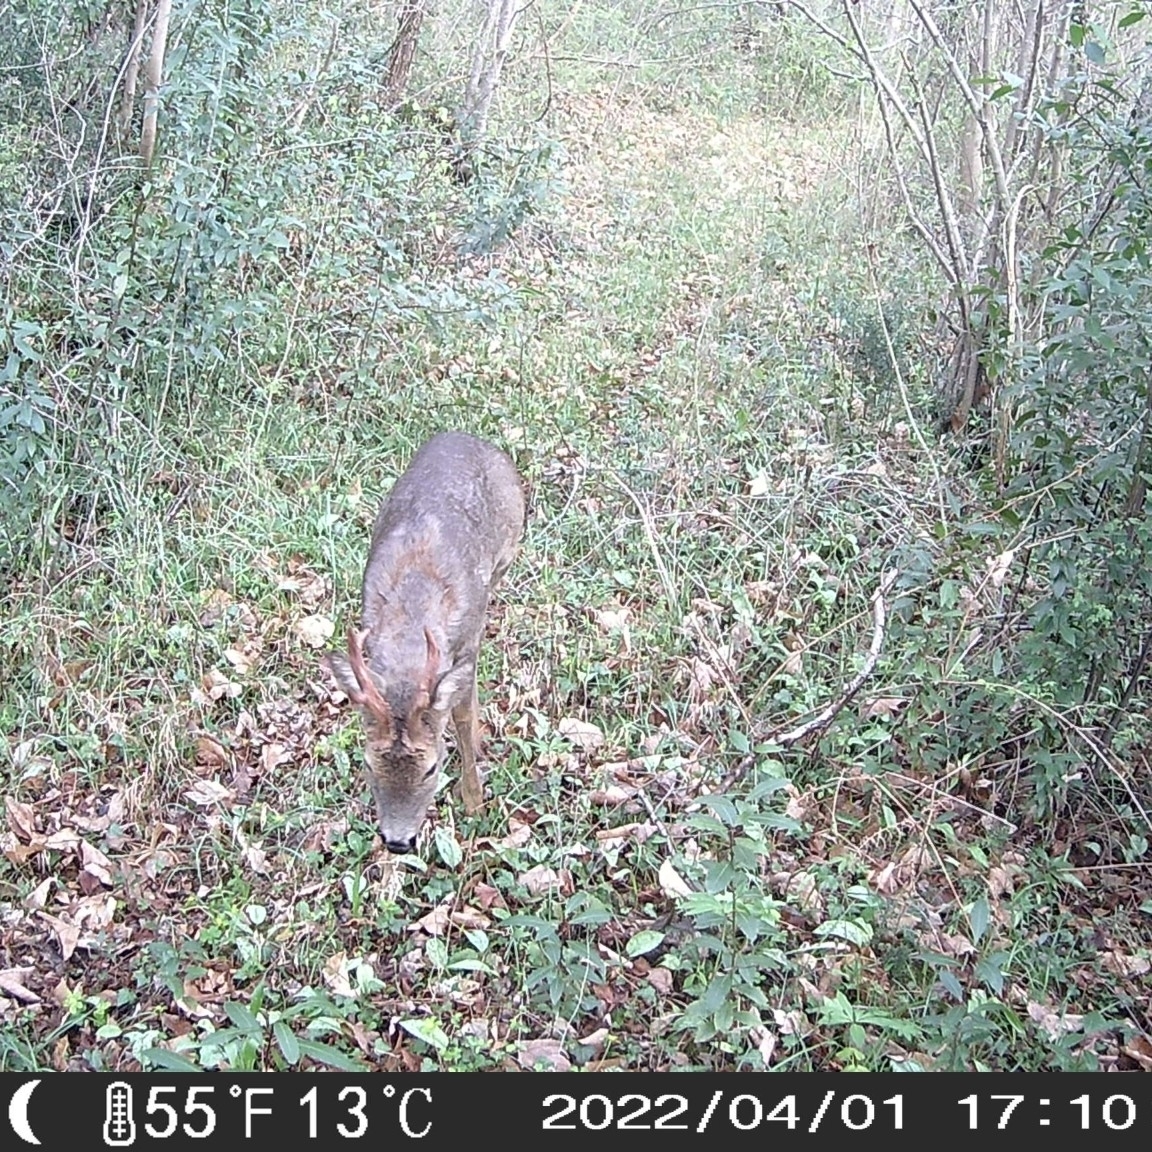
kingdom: Animalia
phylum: Chordata
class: Mammalia
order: Artiodactyla
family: Cervidae
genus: Capreolus
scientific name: Capreolus capreolus
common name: Western roe deer
